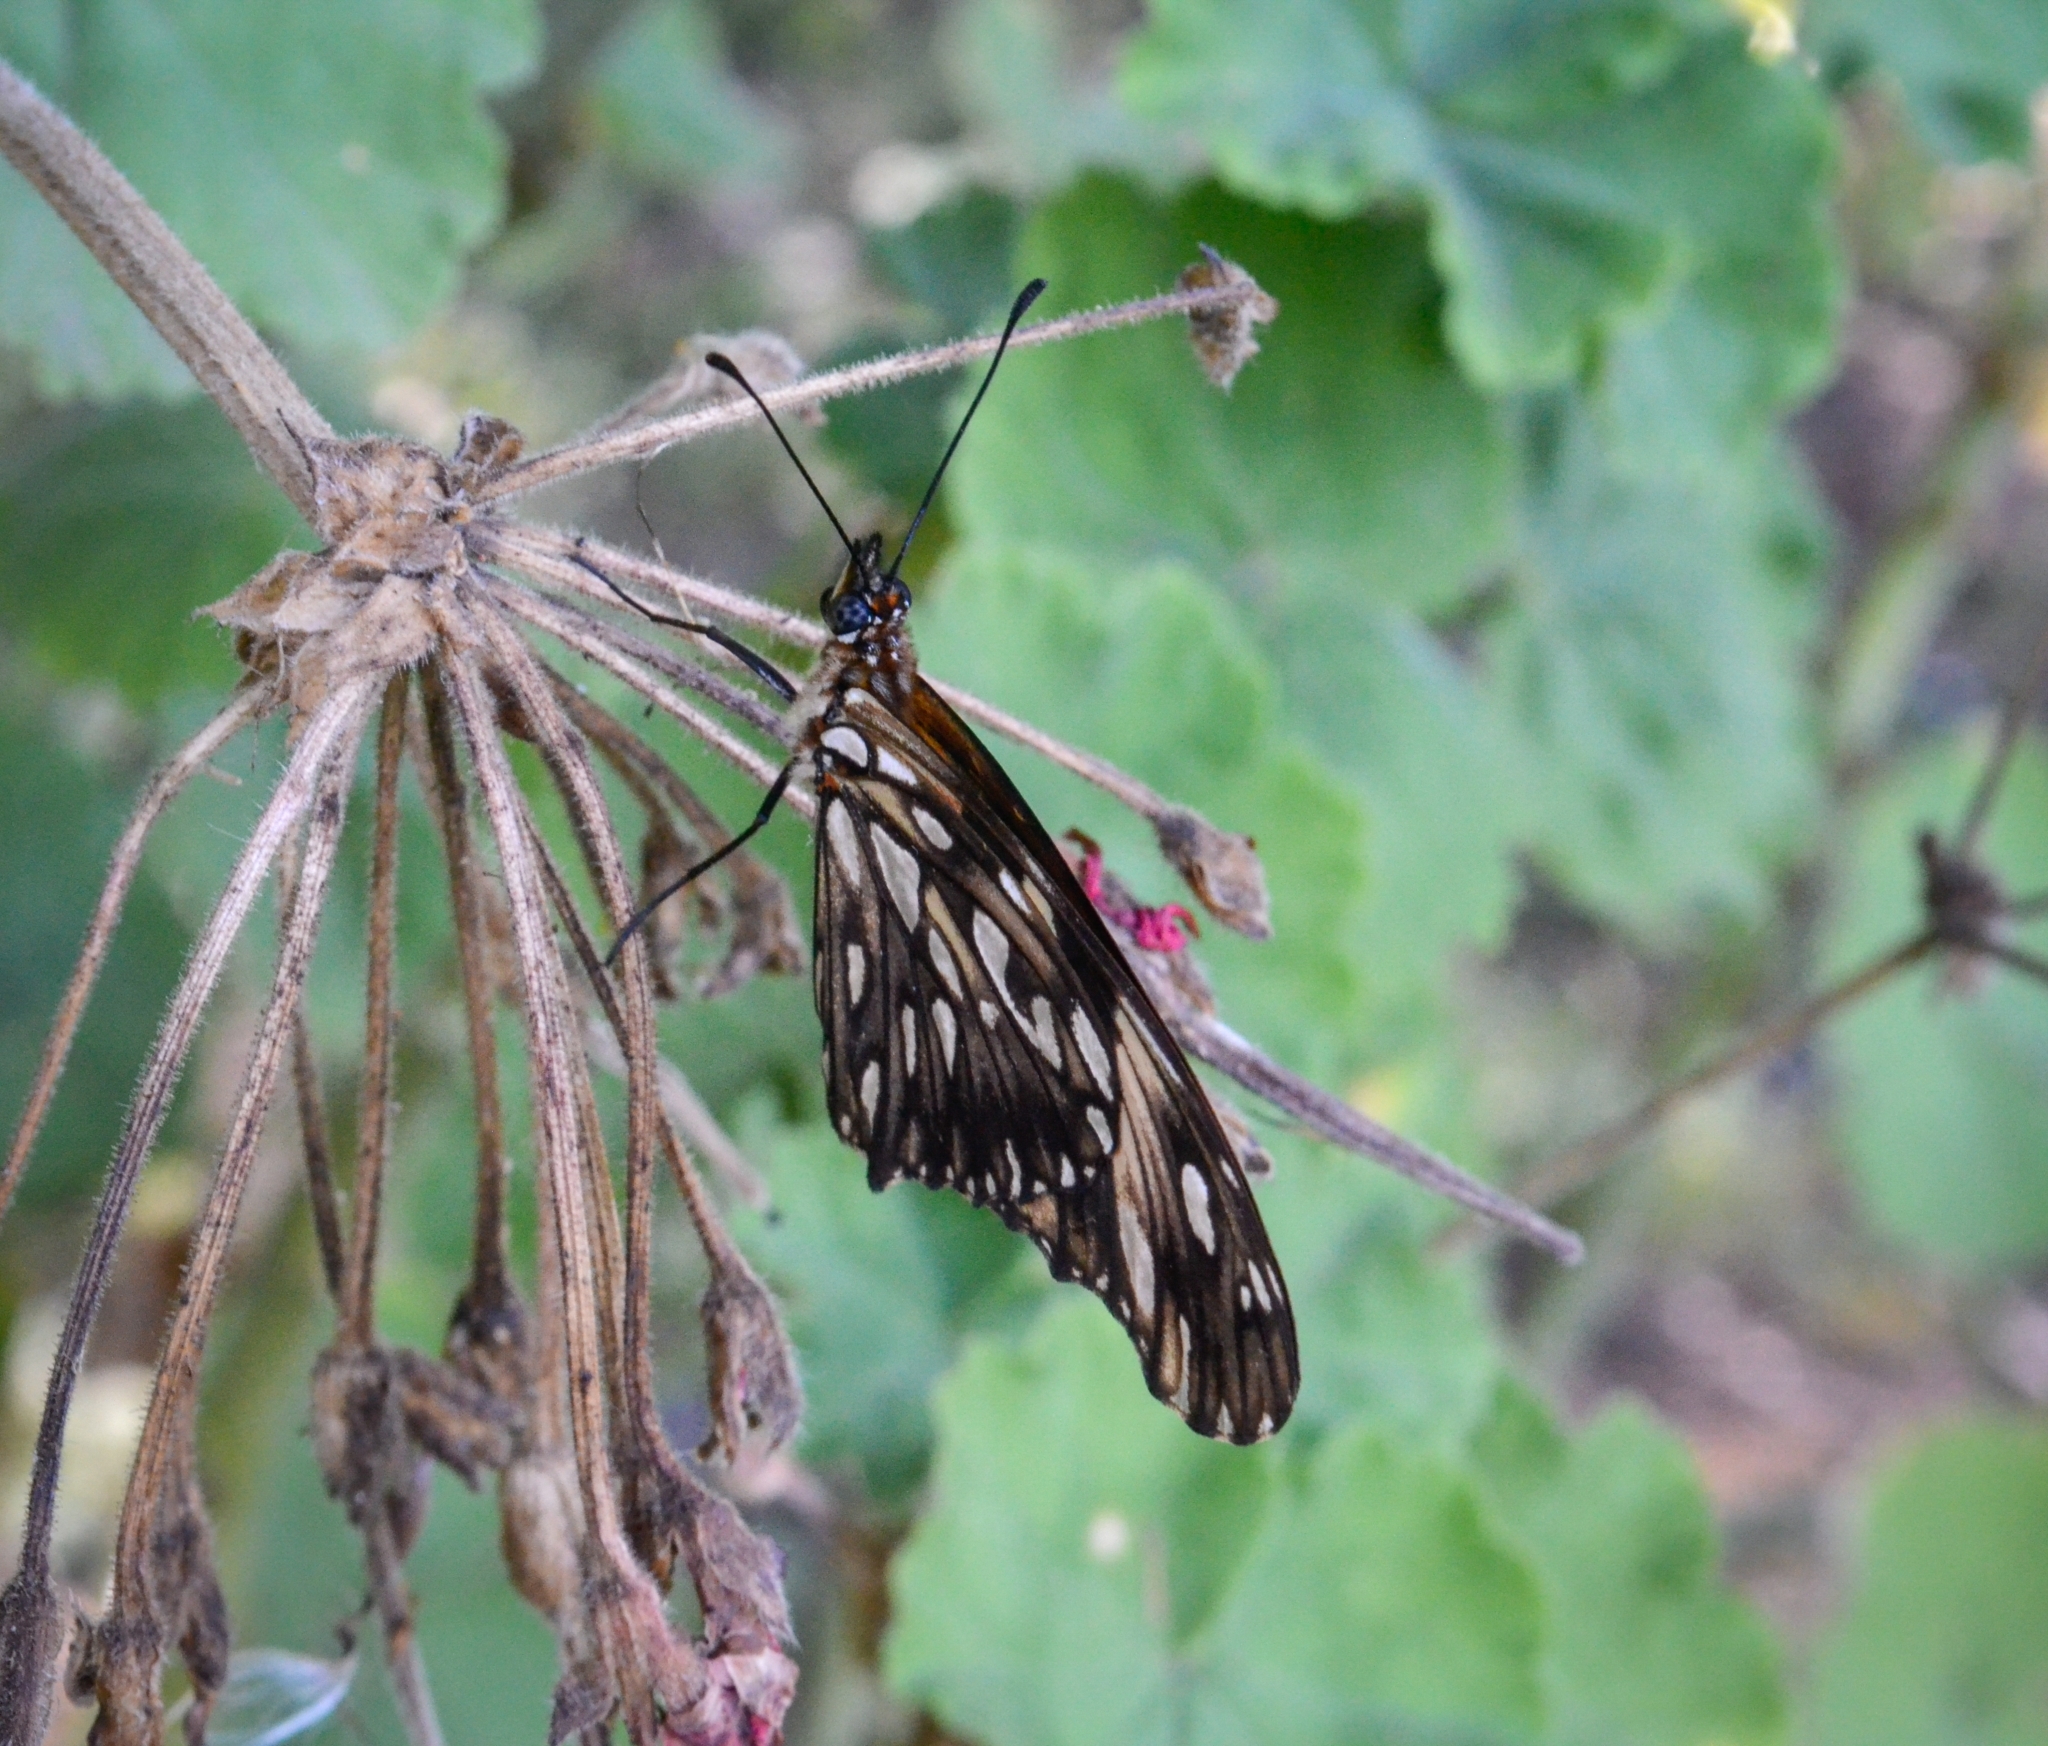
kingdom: Animalia
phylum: Arthropoda
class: Insecta
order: Lepidoptera
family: Nymphalidae
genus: Dione
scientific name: Dione juno
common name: Juno silverspot
